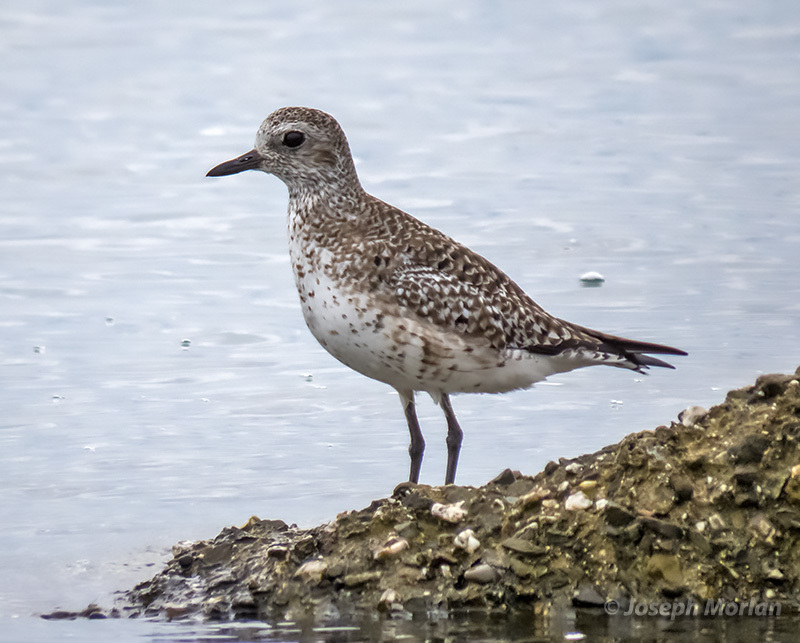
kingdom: Animalia
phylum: Chordata
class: Aves
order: Charadriiformes
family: Charadriidae
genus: Pluvialis
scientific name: Pluvialis squatarola
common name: Grey plover
